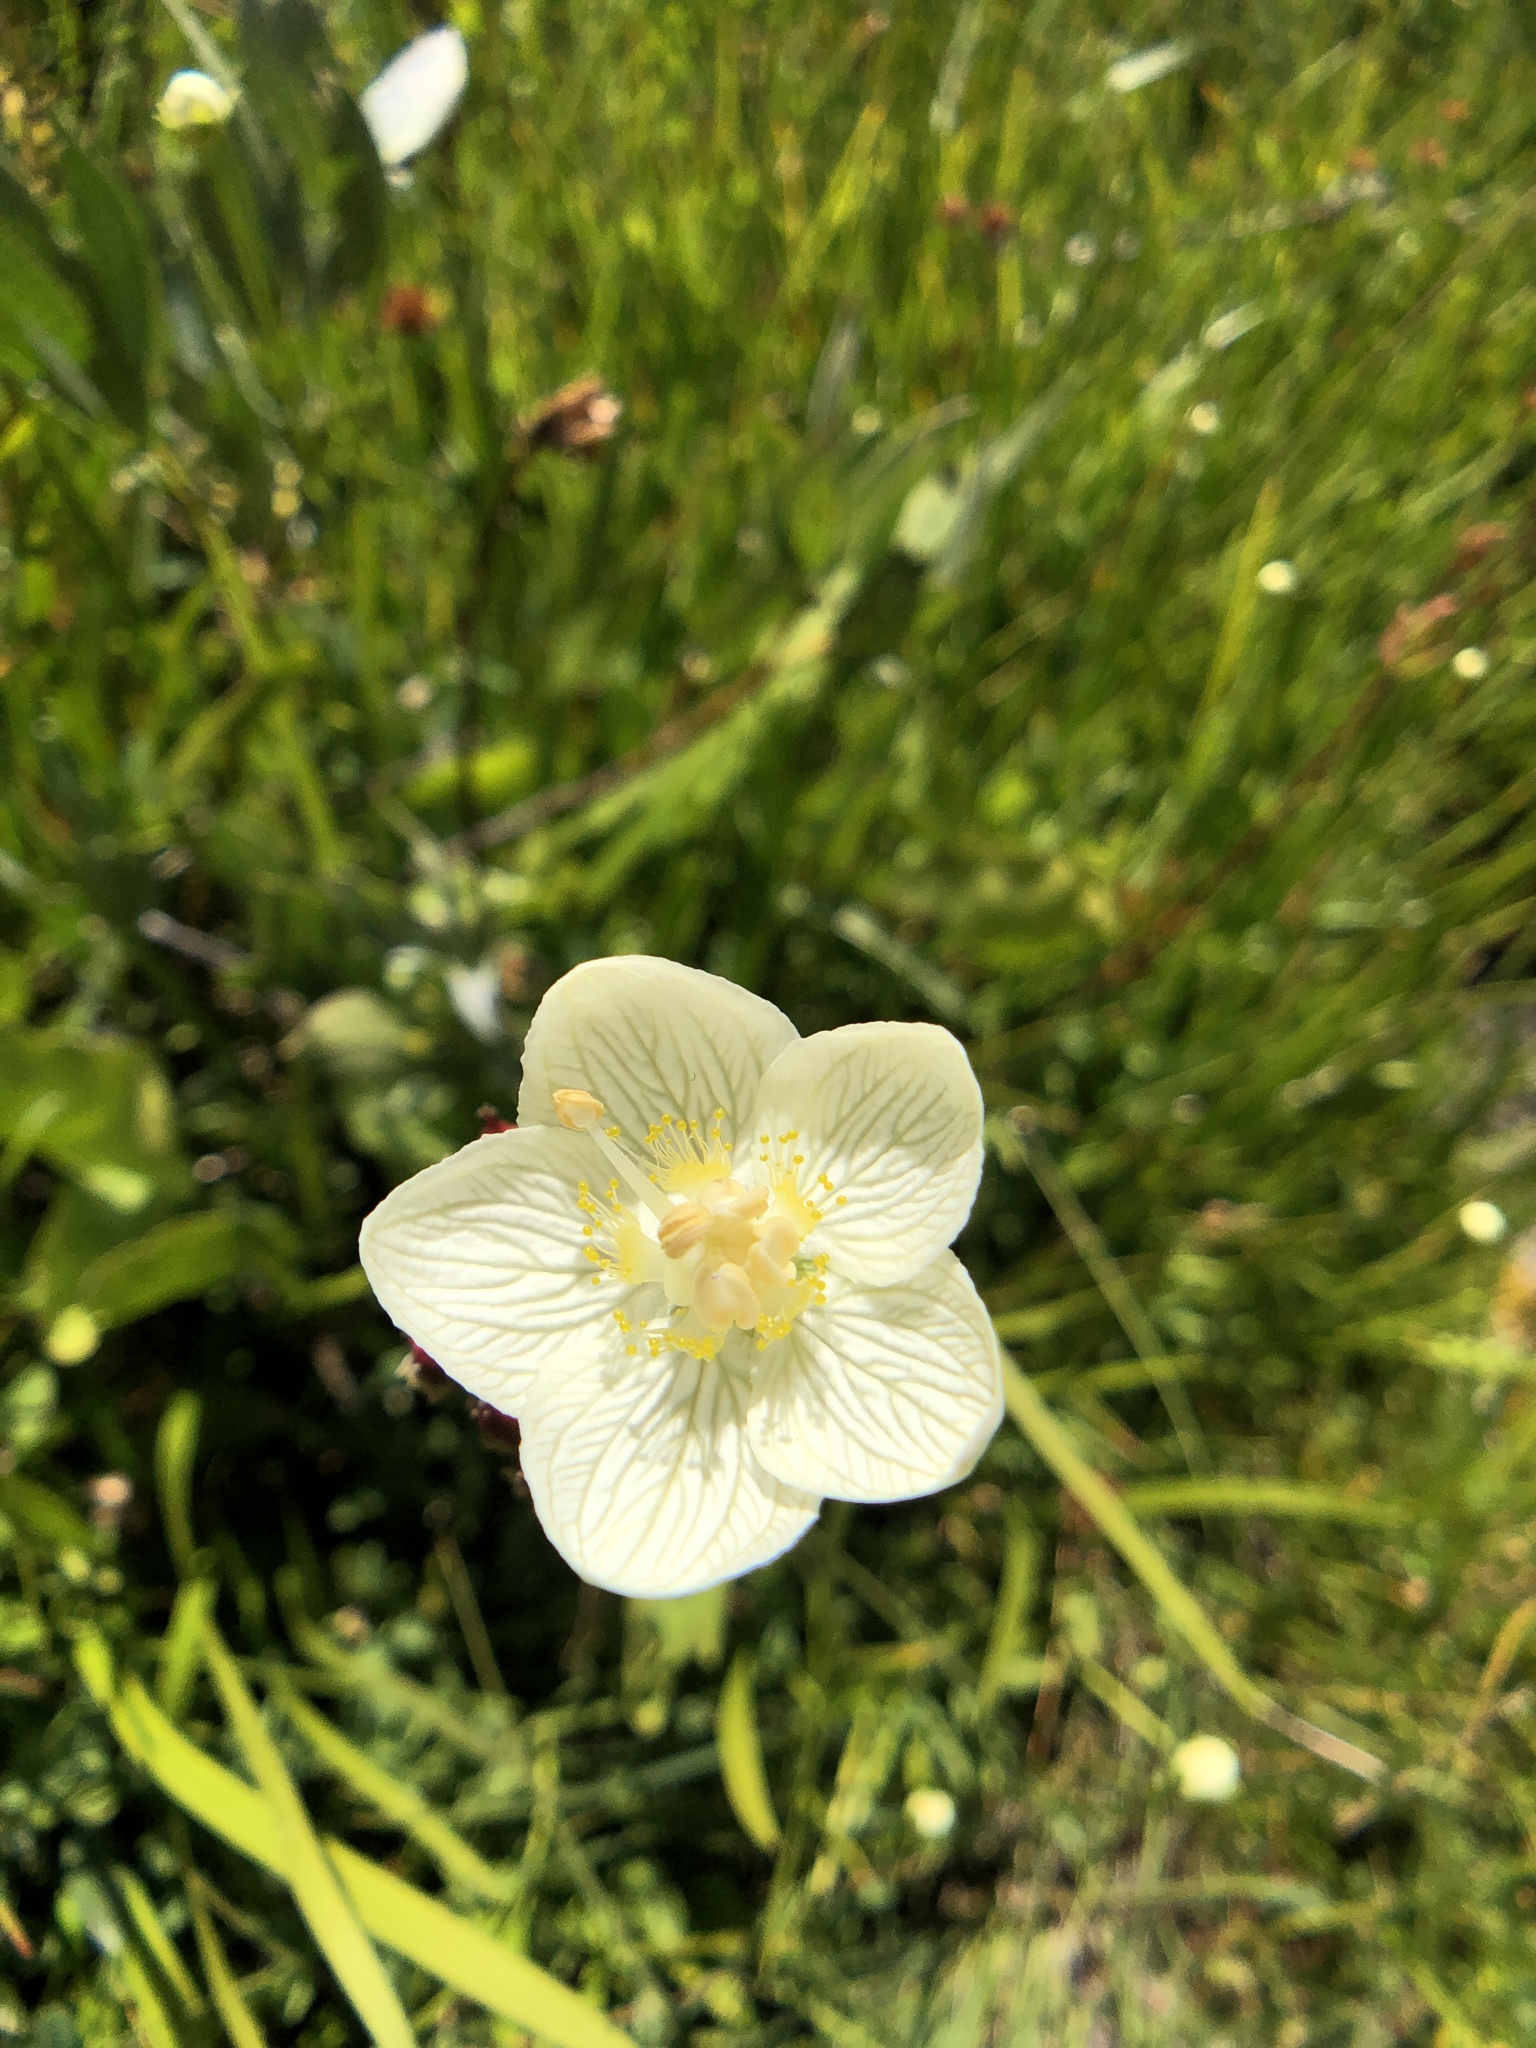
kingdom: Plantae
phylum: Tracheophyta
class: Magnoliopsida
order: Celastrales
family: Parnassiaceae
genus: Parnassia
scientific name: Parnassia palustris
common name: Grass-of-parnassus
